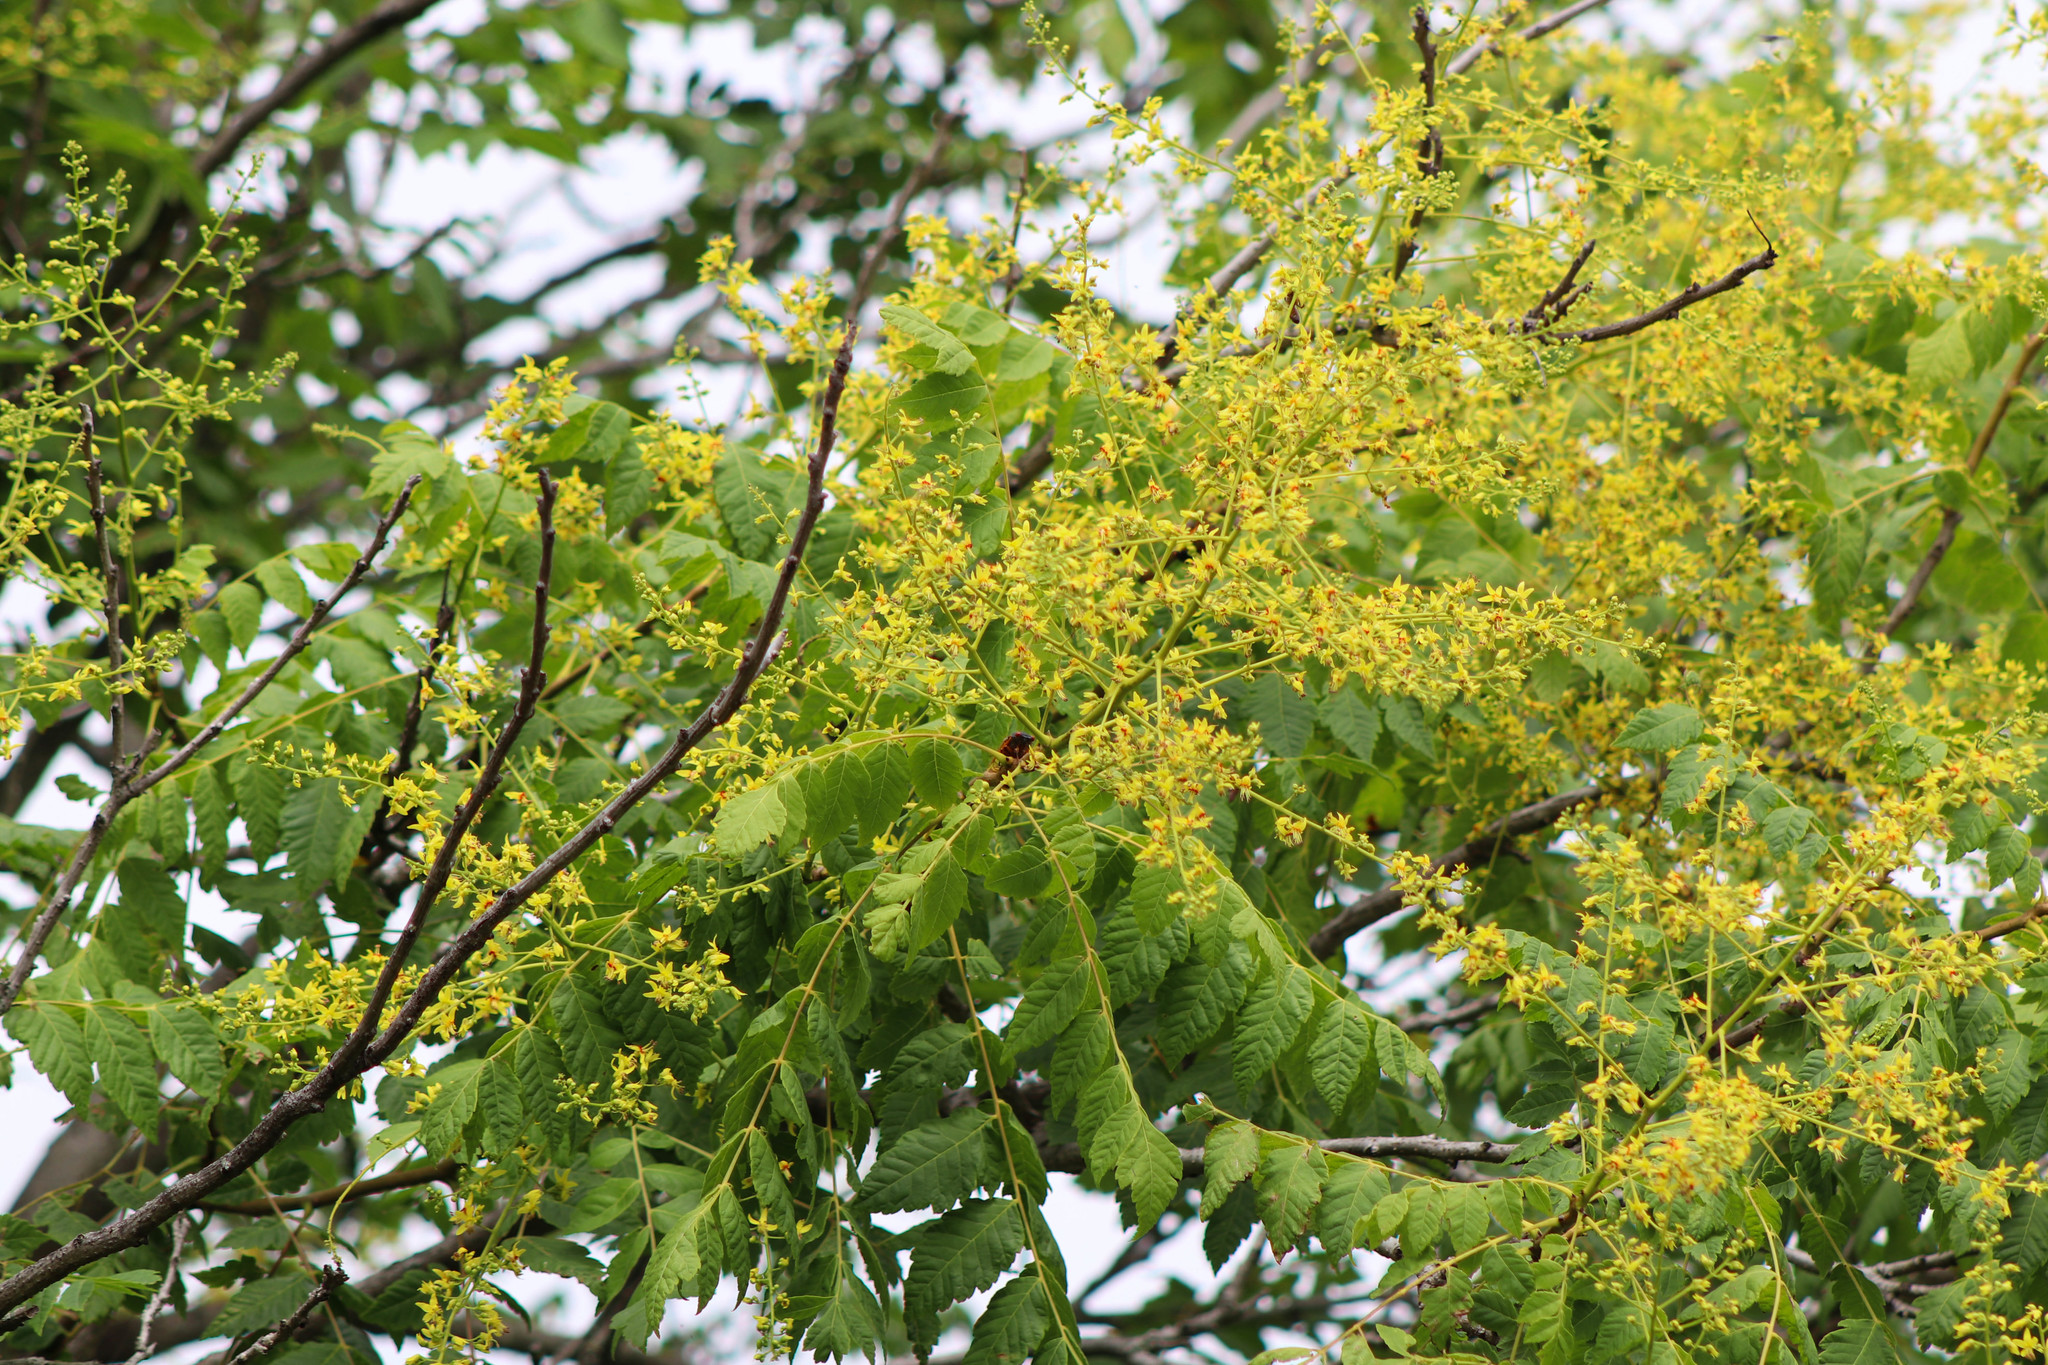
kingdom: Plantae
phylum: Tracheophyta
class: Magnoliopsida
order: Sapindales
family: Sapindaceae
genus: Koelreuteria
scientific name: Koelreuteria paniculata
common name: Pride-of-india
